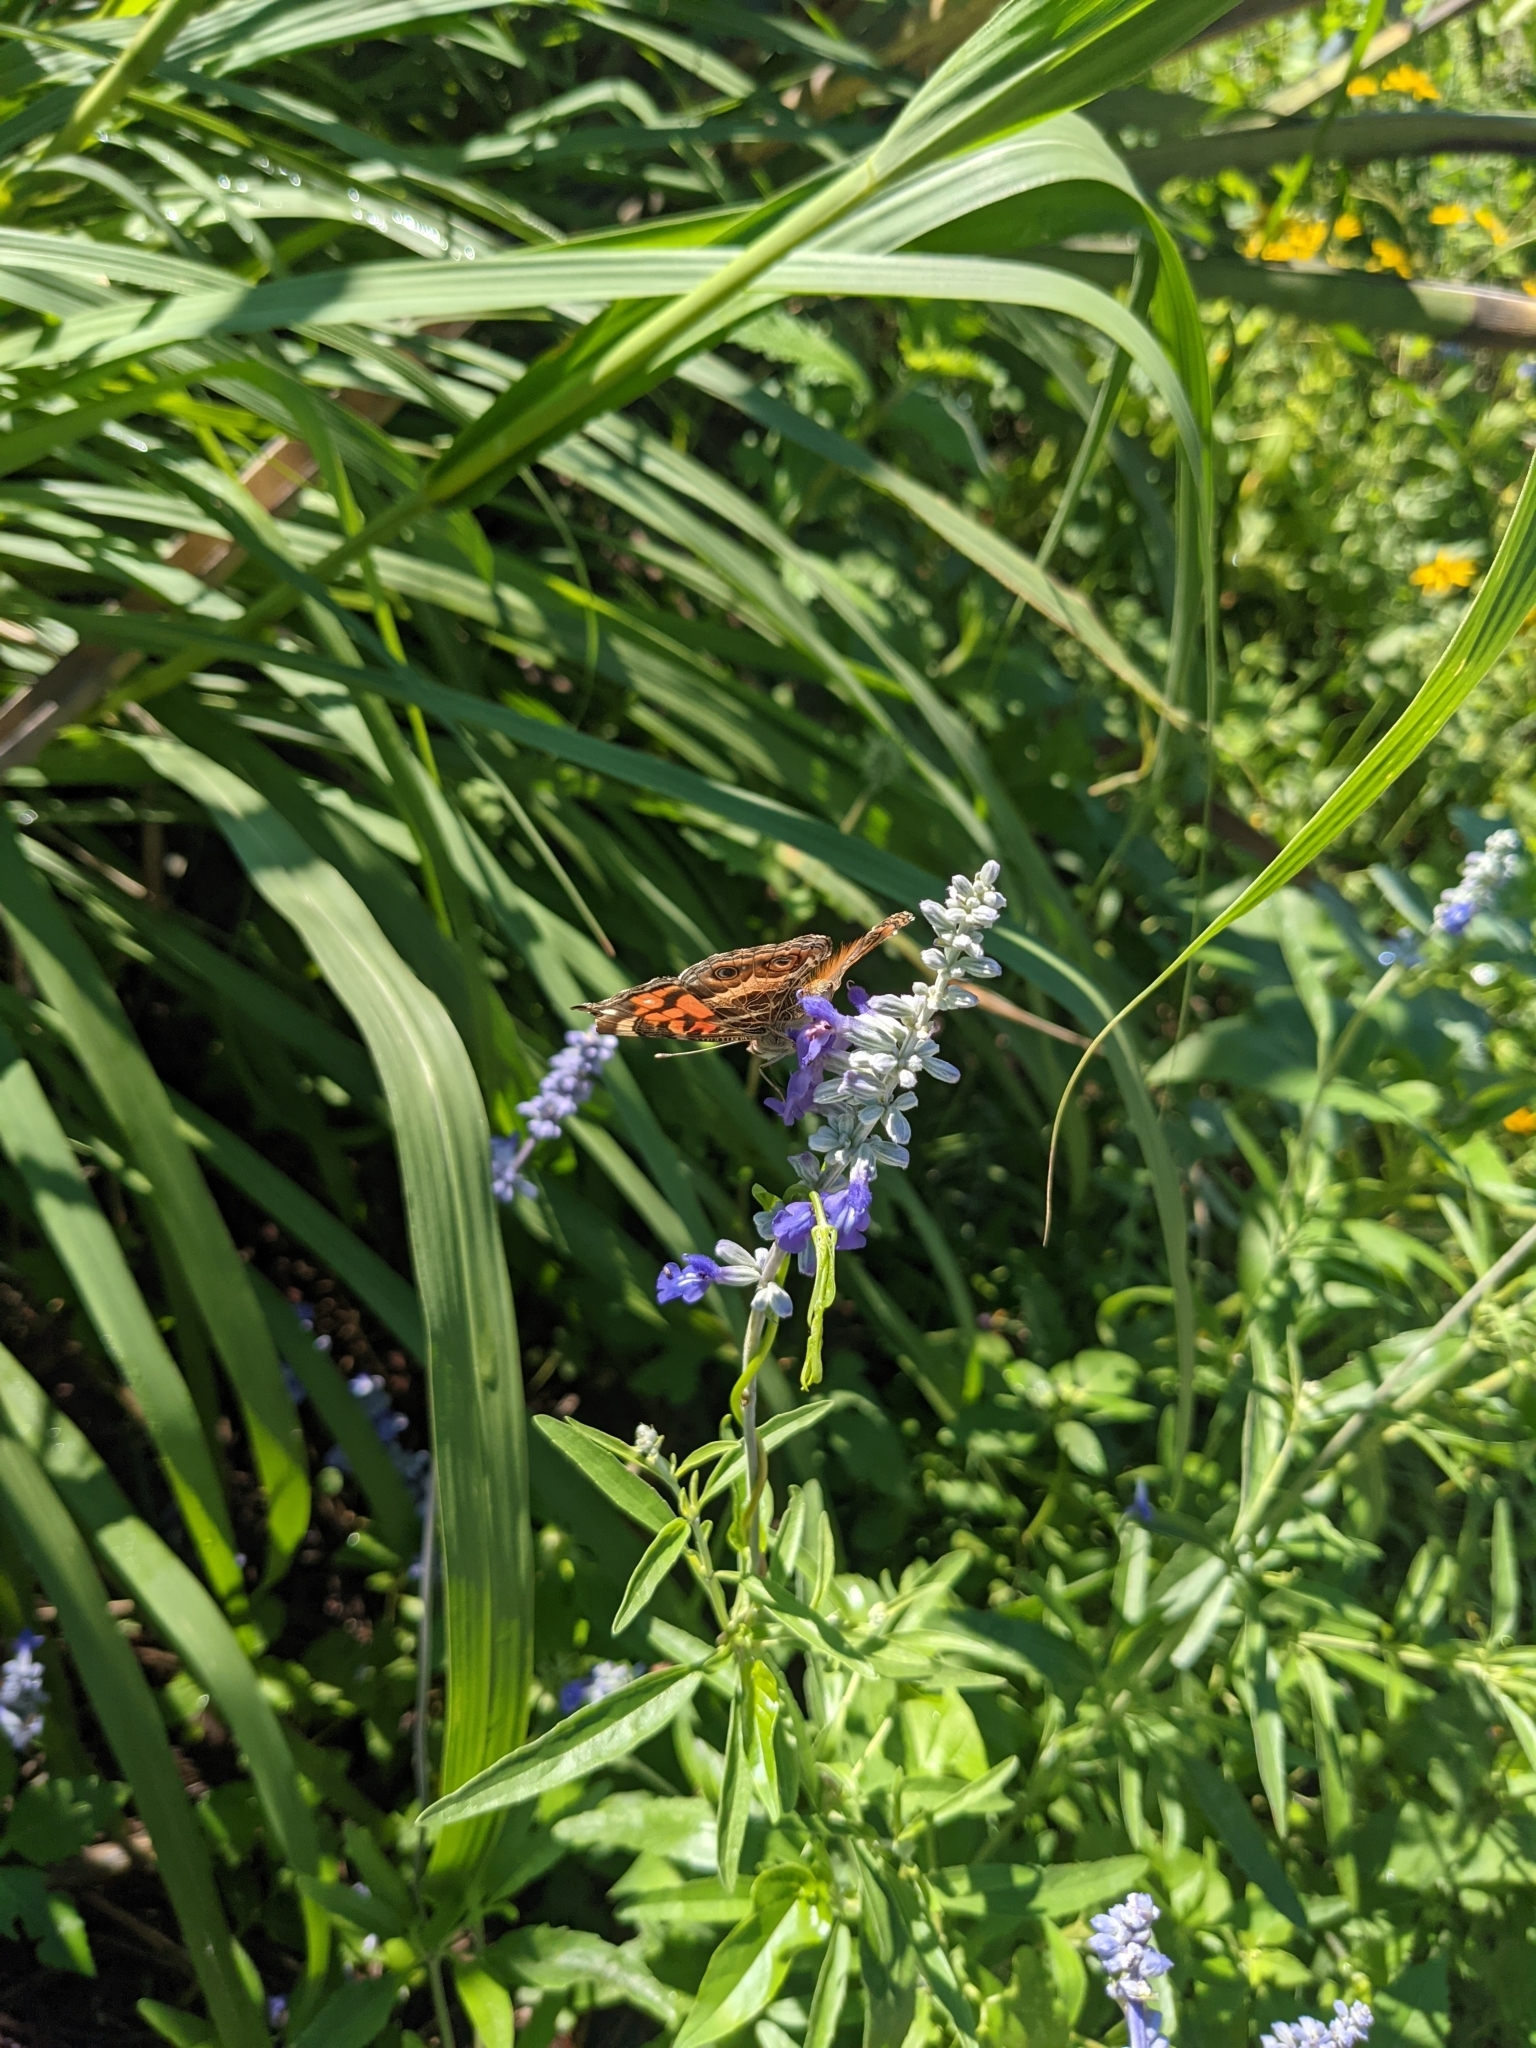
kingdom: Animalia
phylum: Arthropoda
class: Insecta
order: Lepidoptera
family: Nymphalidae
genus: Vanessa
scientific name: Vanessa virginiensis
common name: American lady
